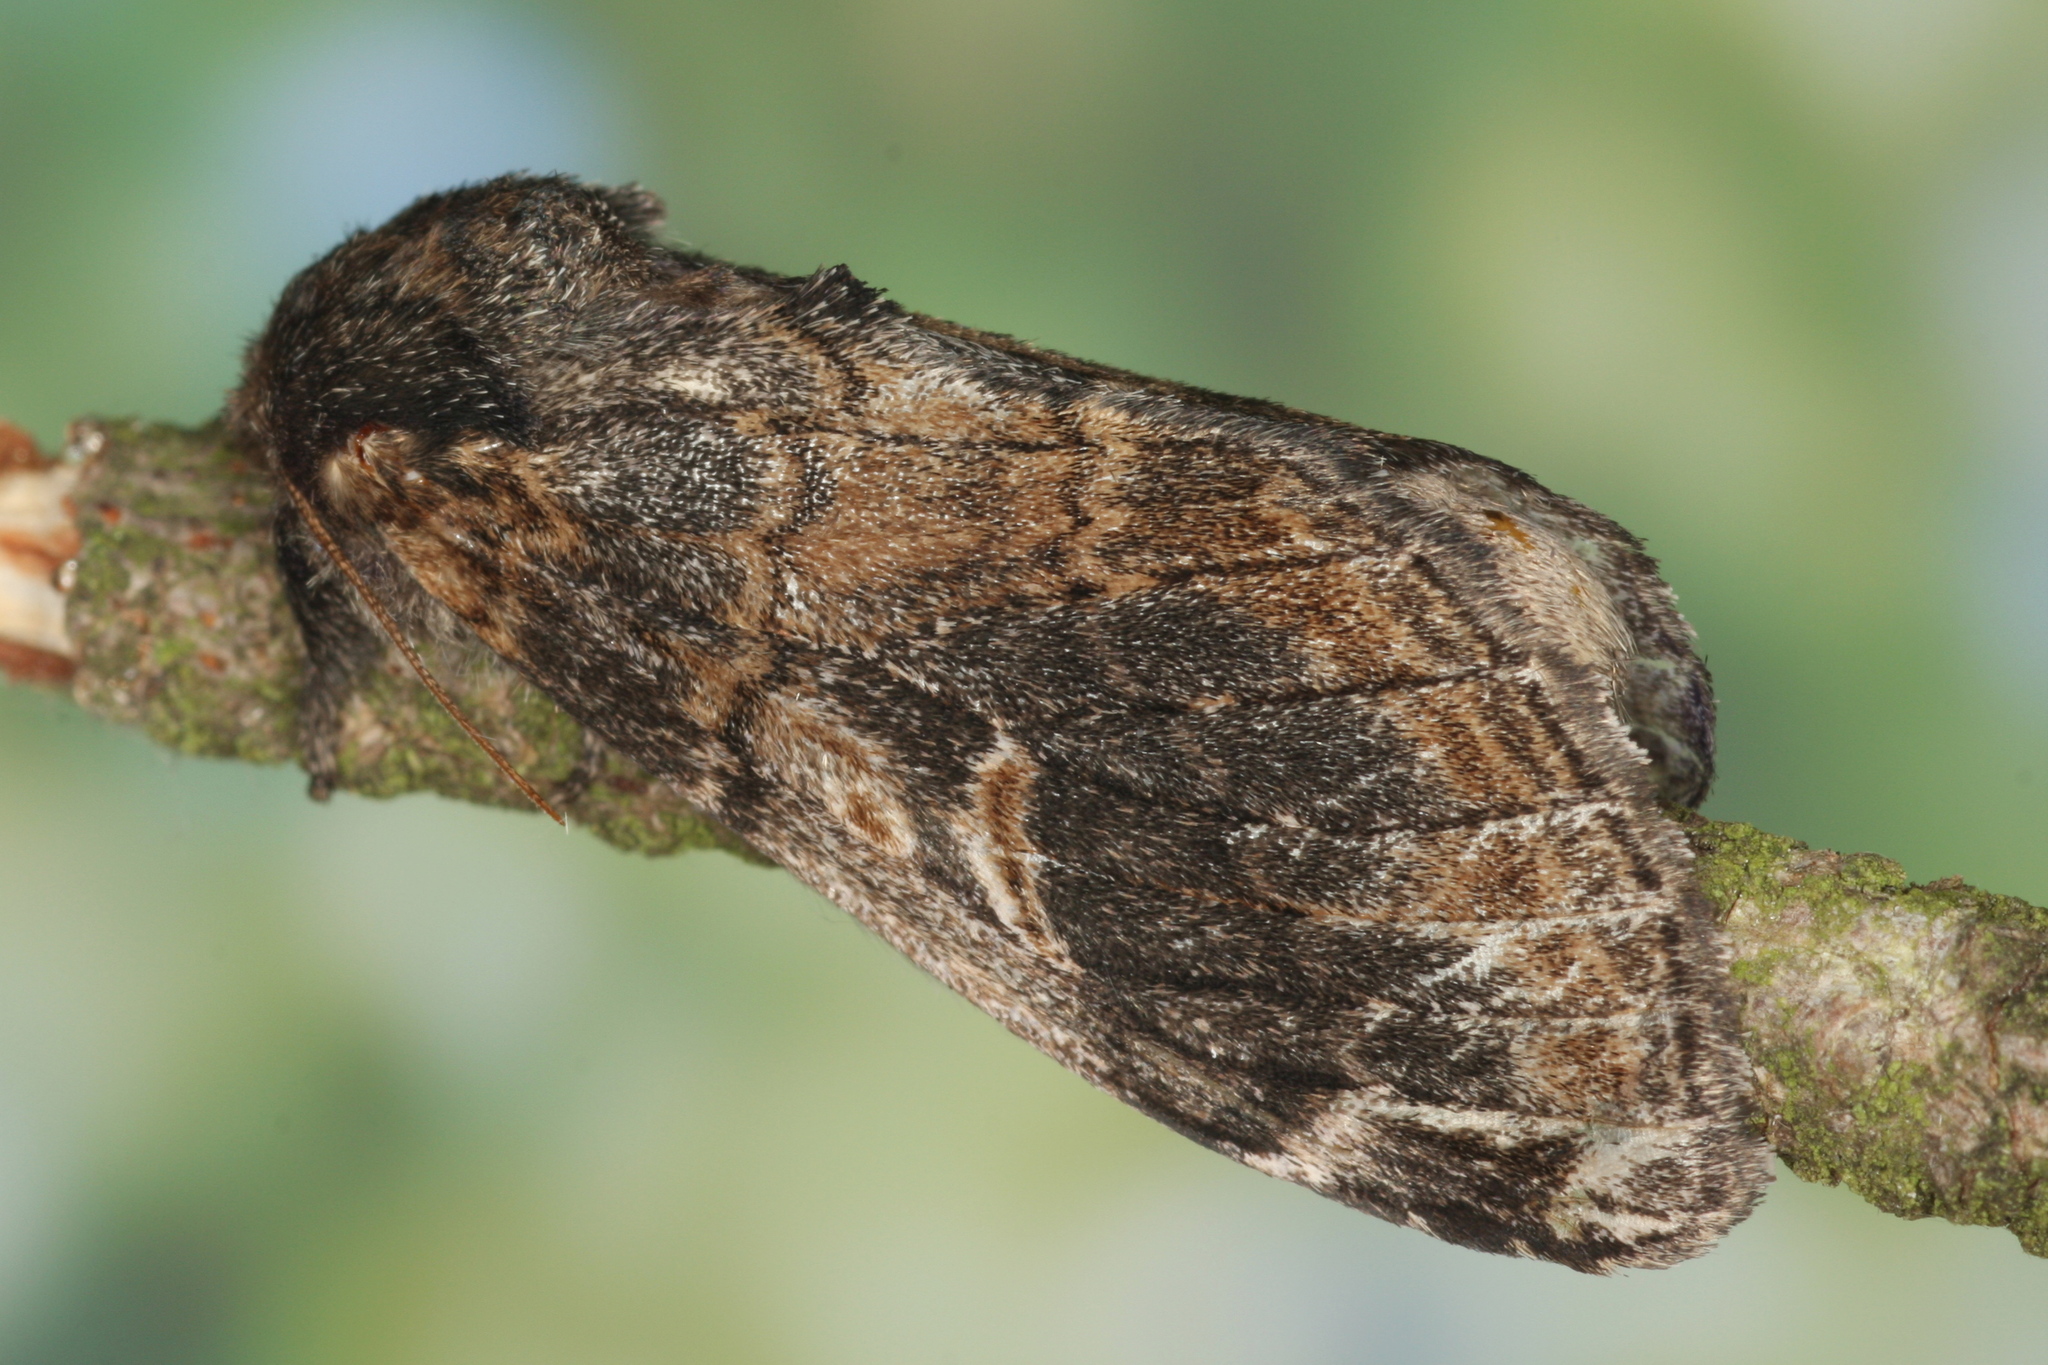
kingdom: Animalia
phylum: Arthropoda
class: Insecta
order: Lepidoptera
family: Notodontidae
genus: Notodonta
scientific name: Notodonta tritophus
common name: Three-humped prominent
